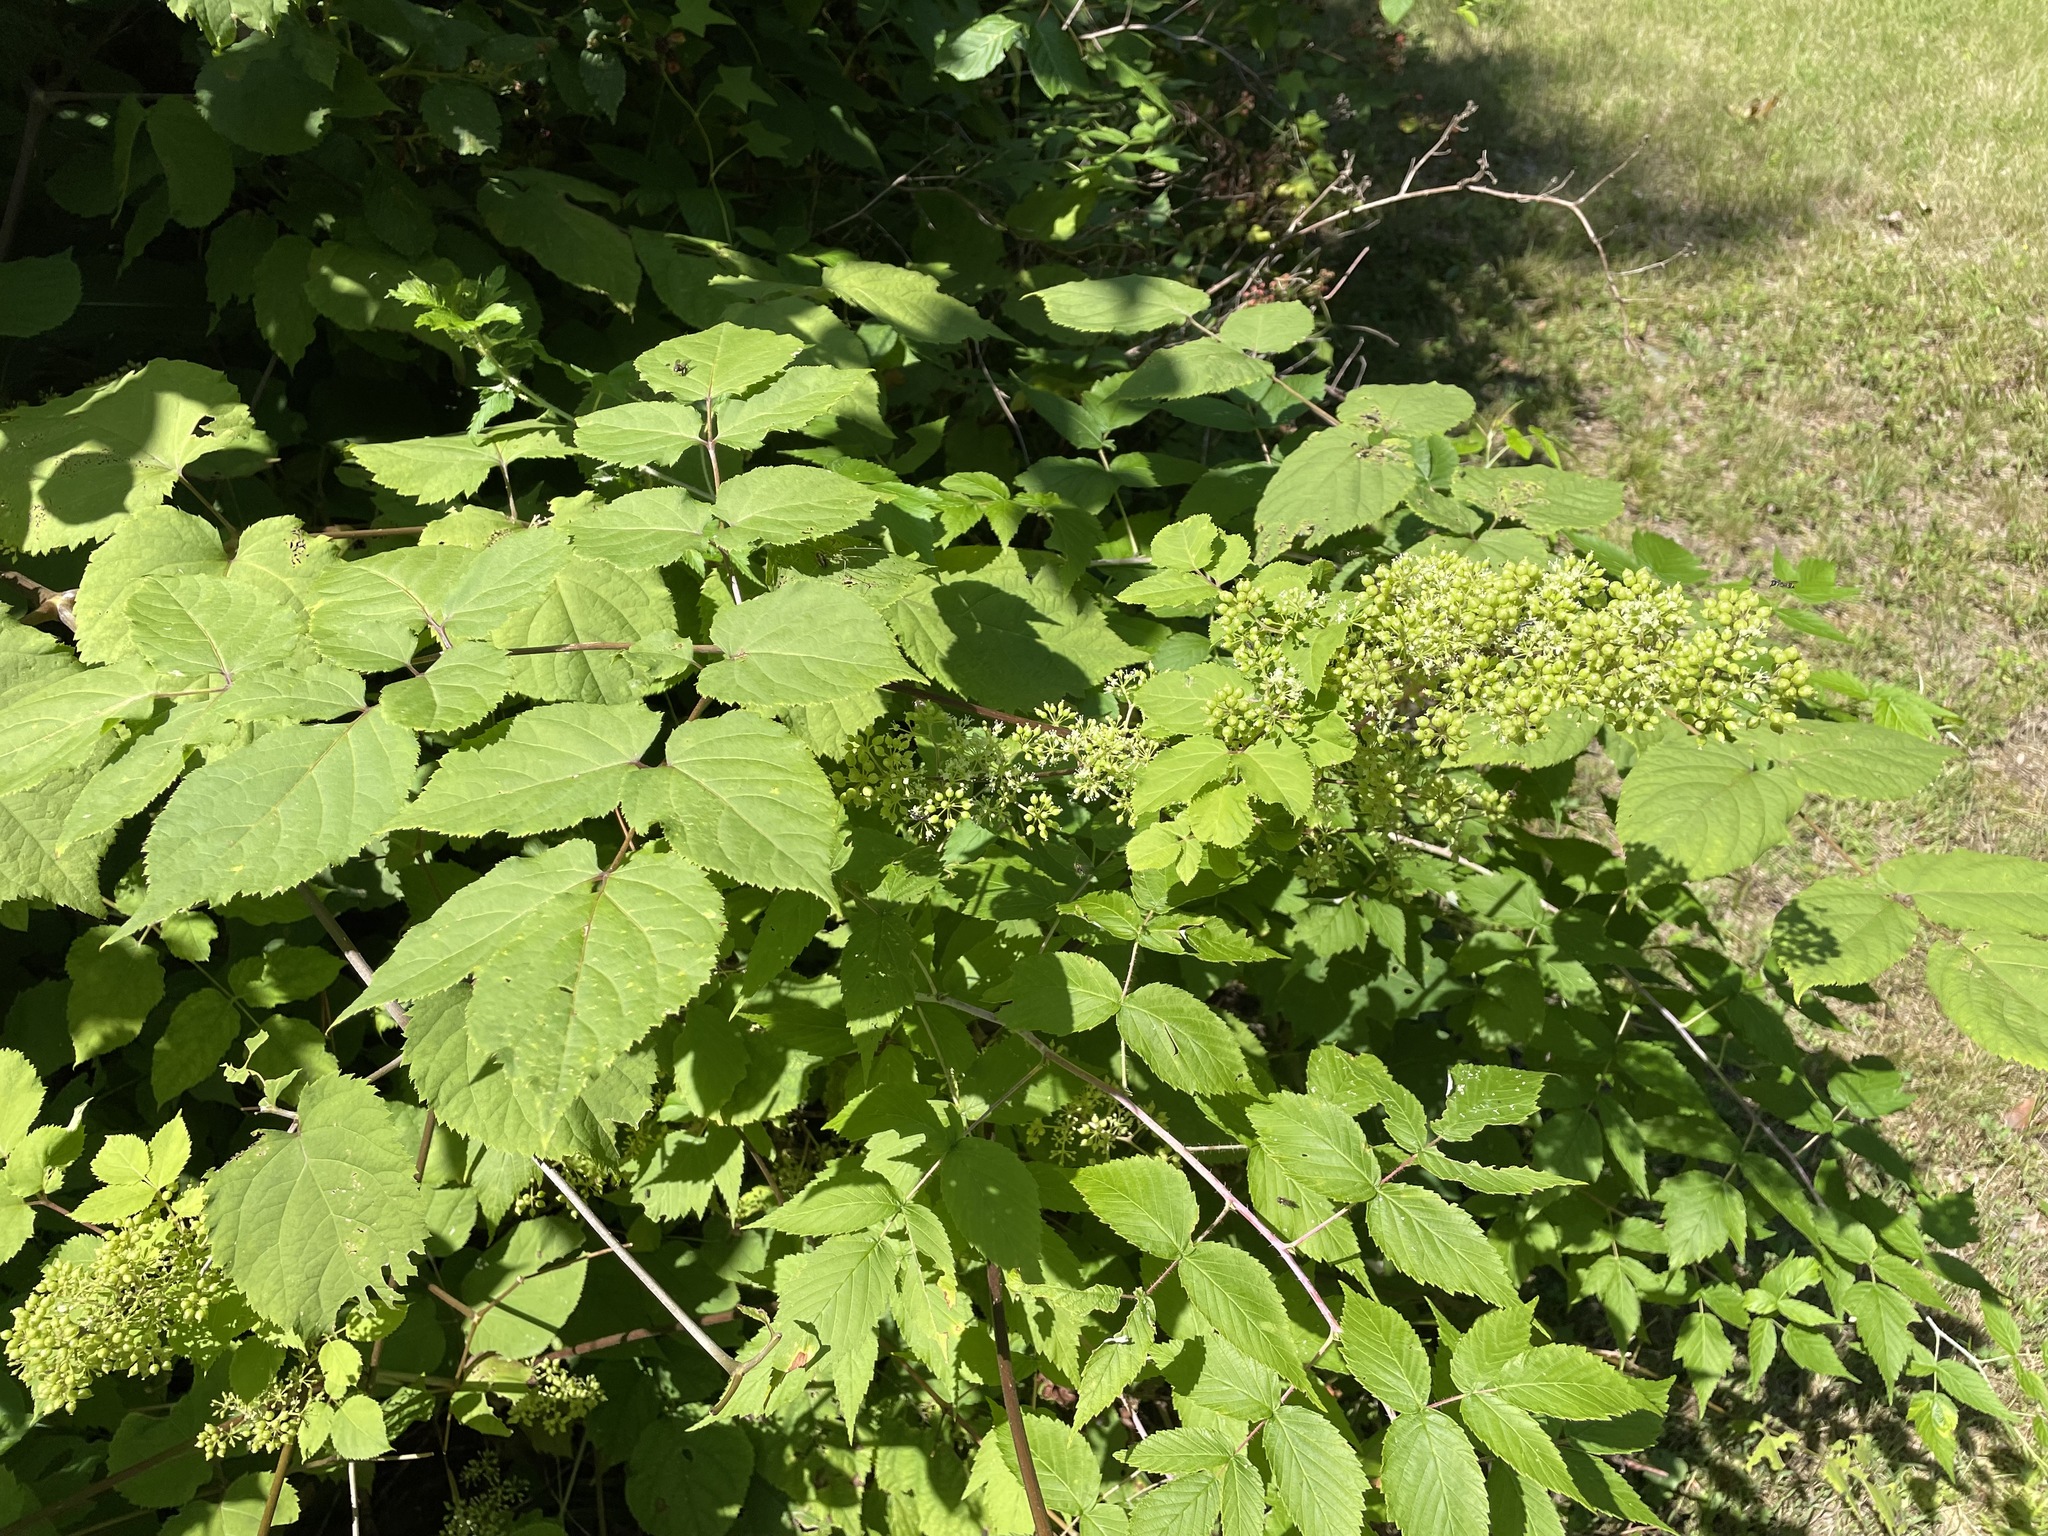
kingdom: Plantae
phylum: Tracheophyta
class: Magnoliopsida
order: Apiales
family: Araliaceae
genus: Aralia
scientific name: Aralia racemosa
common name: American-spikenard
